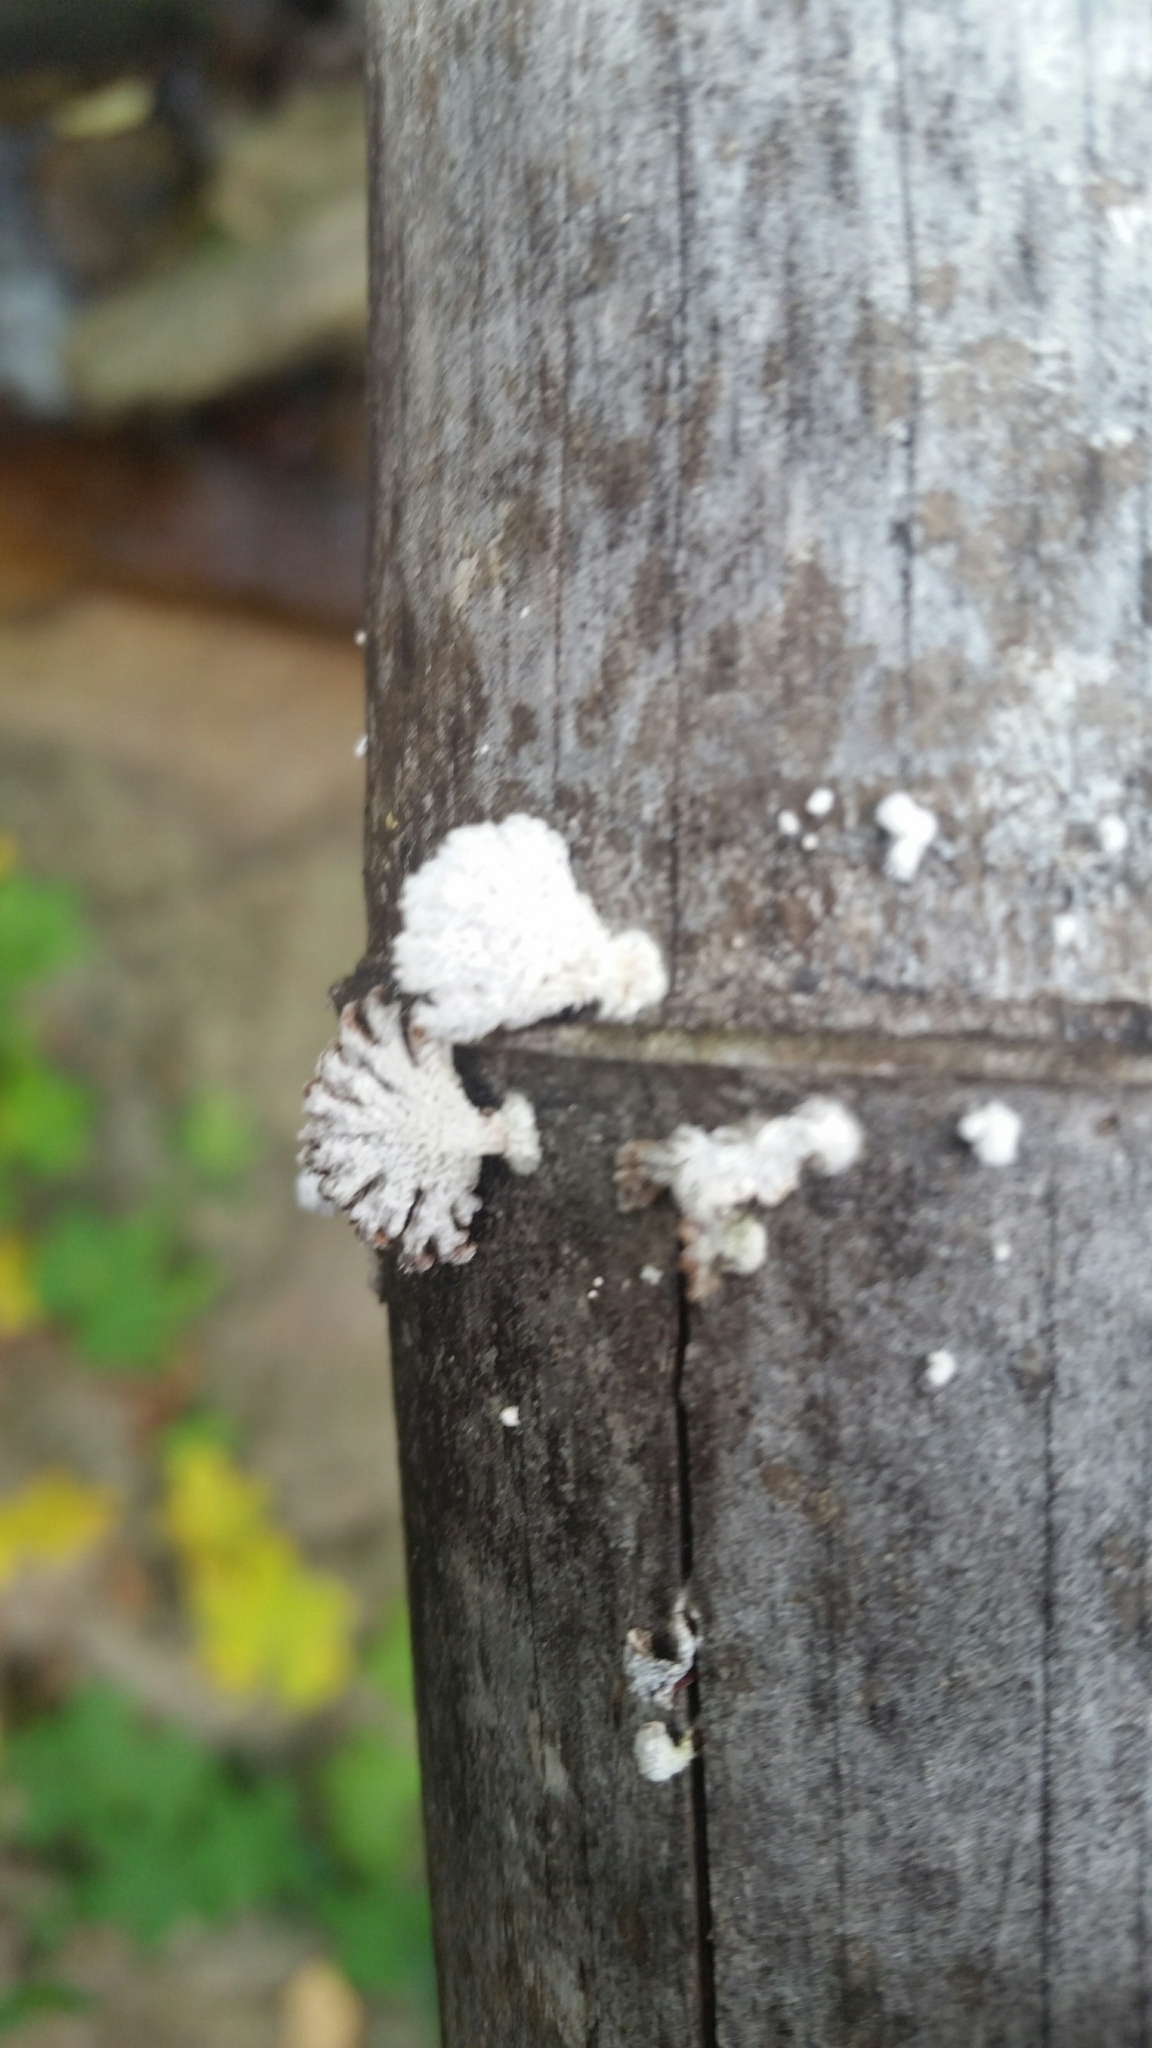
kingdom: Fungi
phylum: Basidiomycota
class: Agaricomycetes
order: Agaricales
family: Schizophyllaceae
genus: Schizophyllum
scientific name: Schizophyllum commune
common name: Common porecrust
